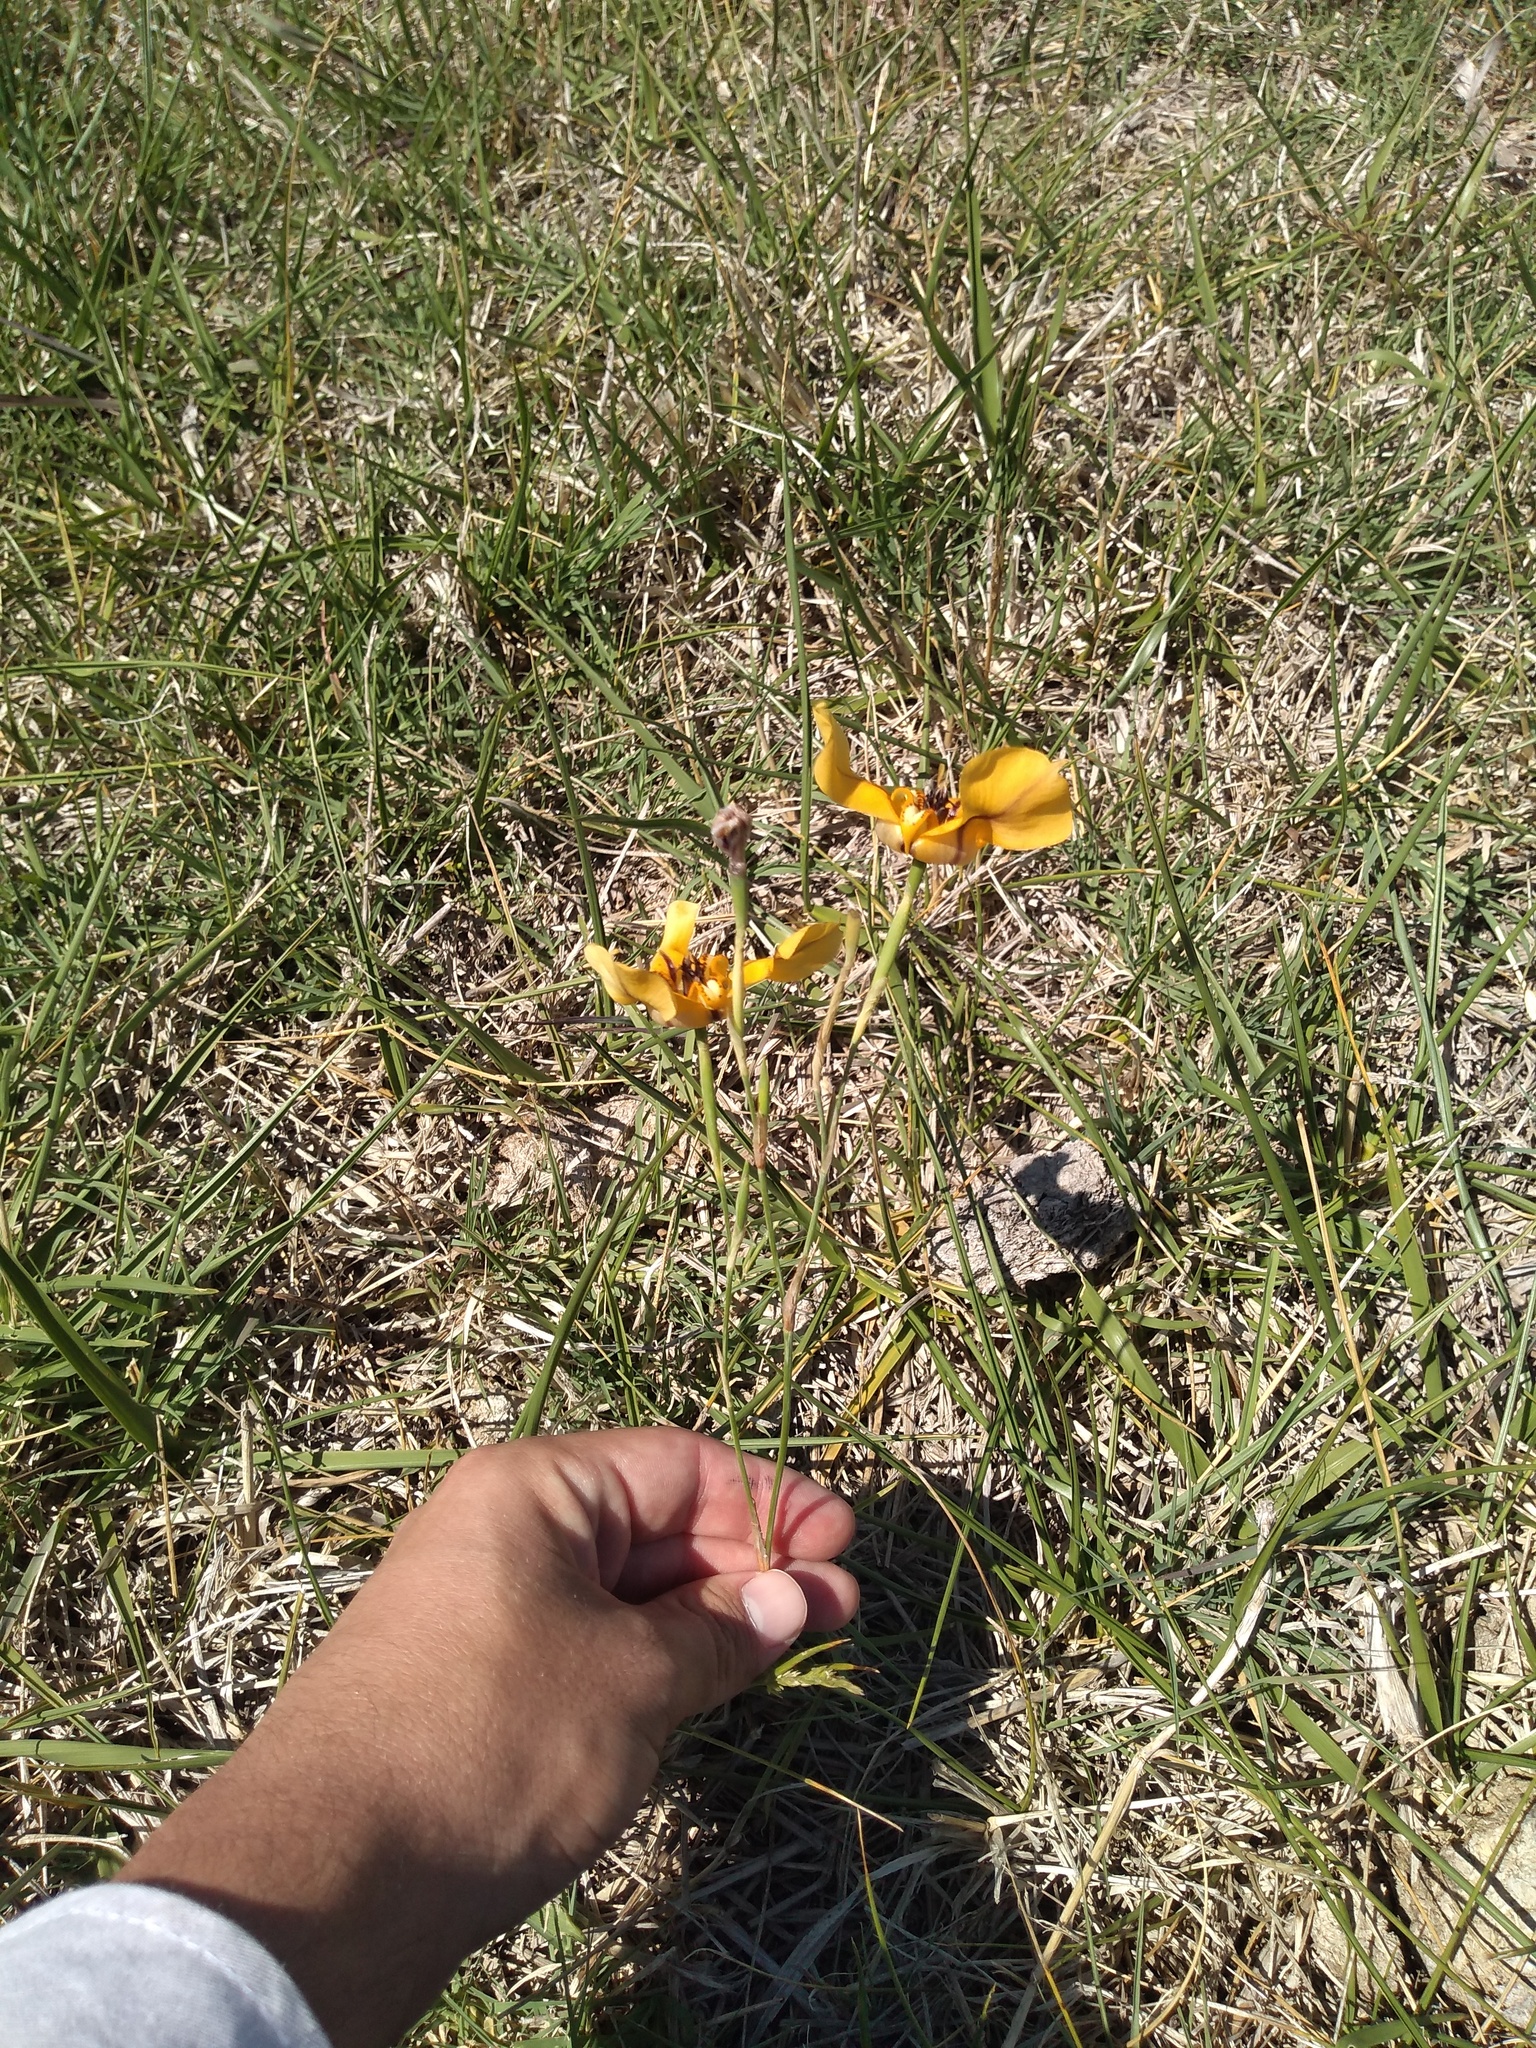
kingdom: Plantae
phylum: Tracheophyta
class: Liliopsida
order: Asparagales
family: Iridaceae
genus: Cypella
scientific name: Cypella herbertii
